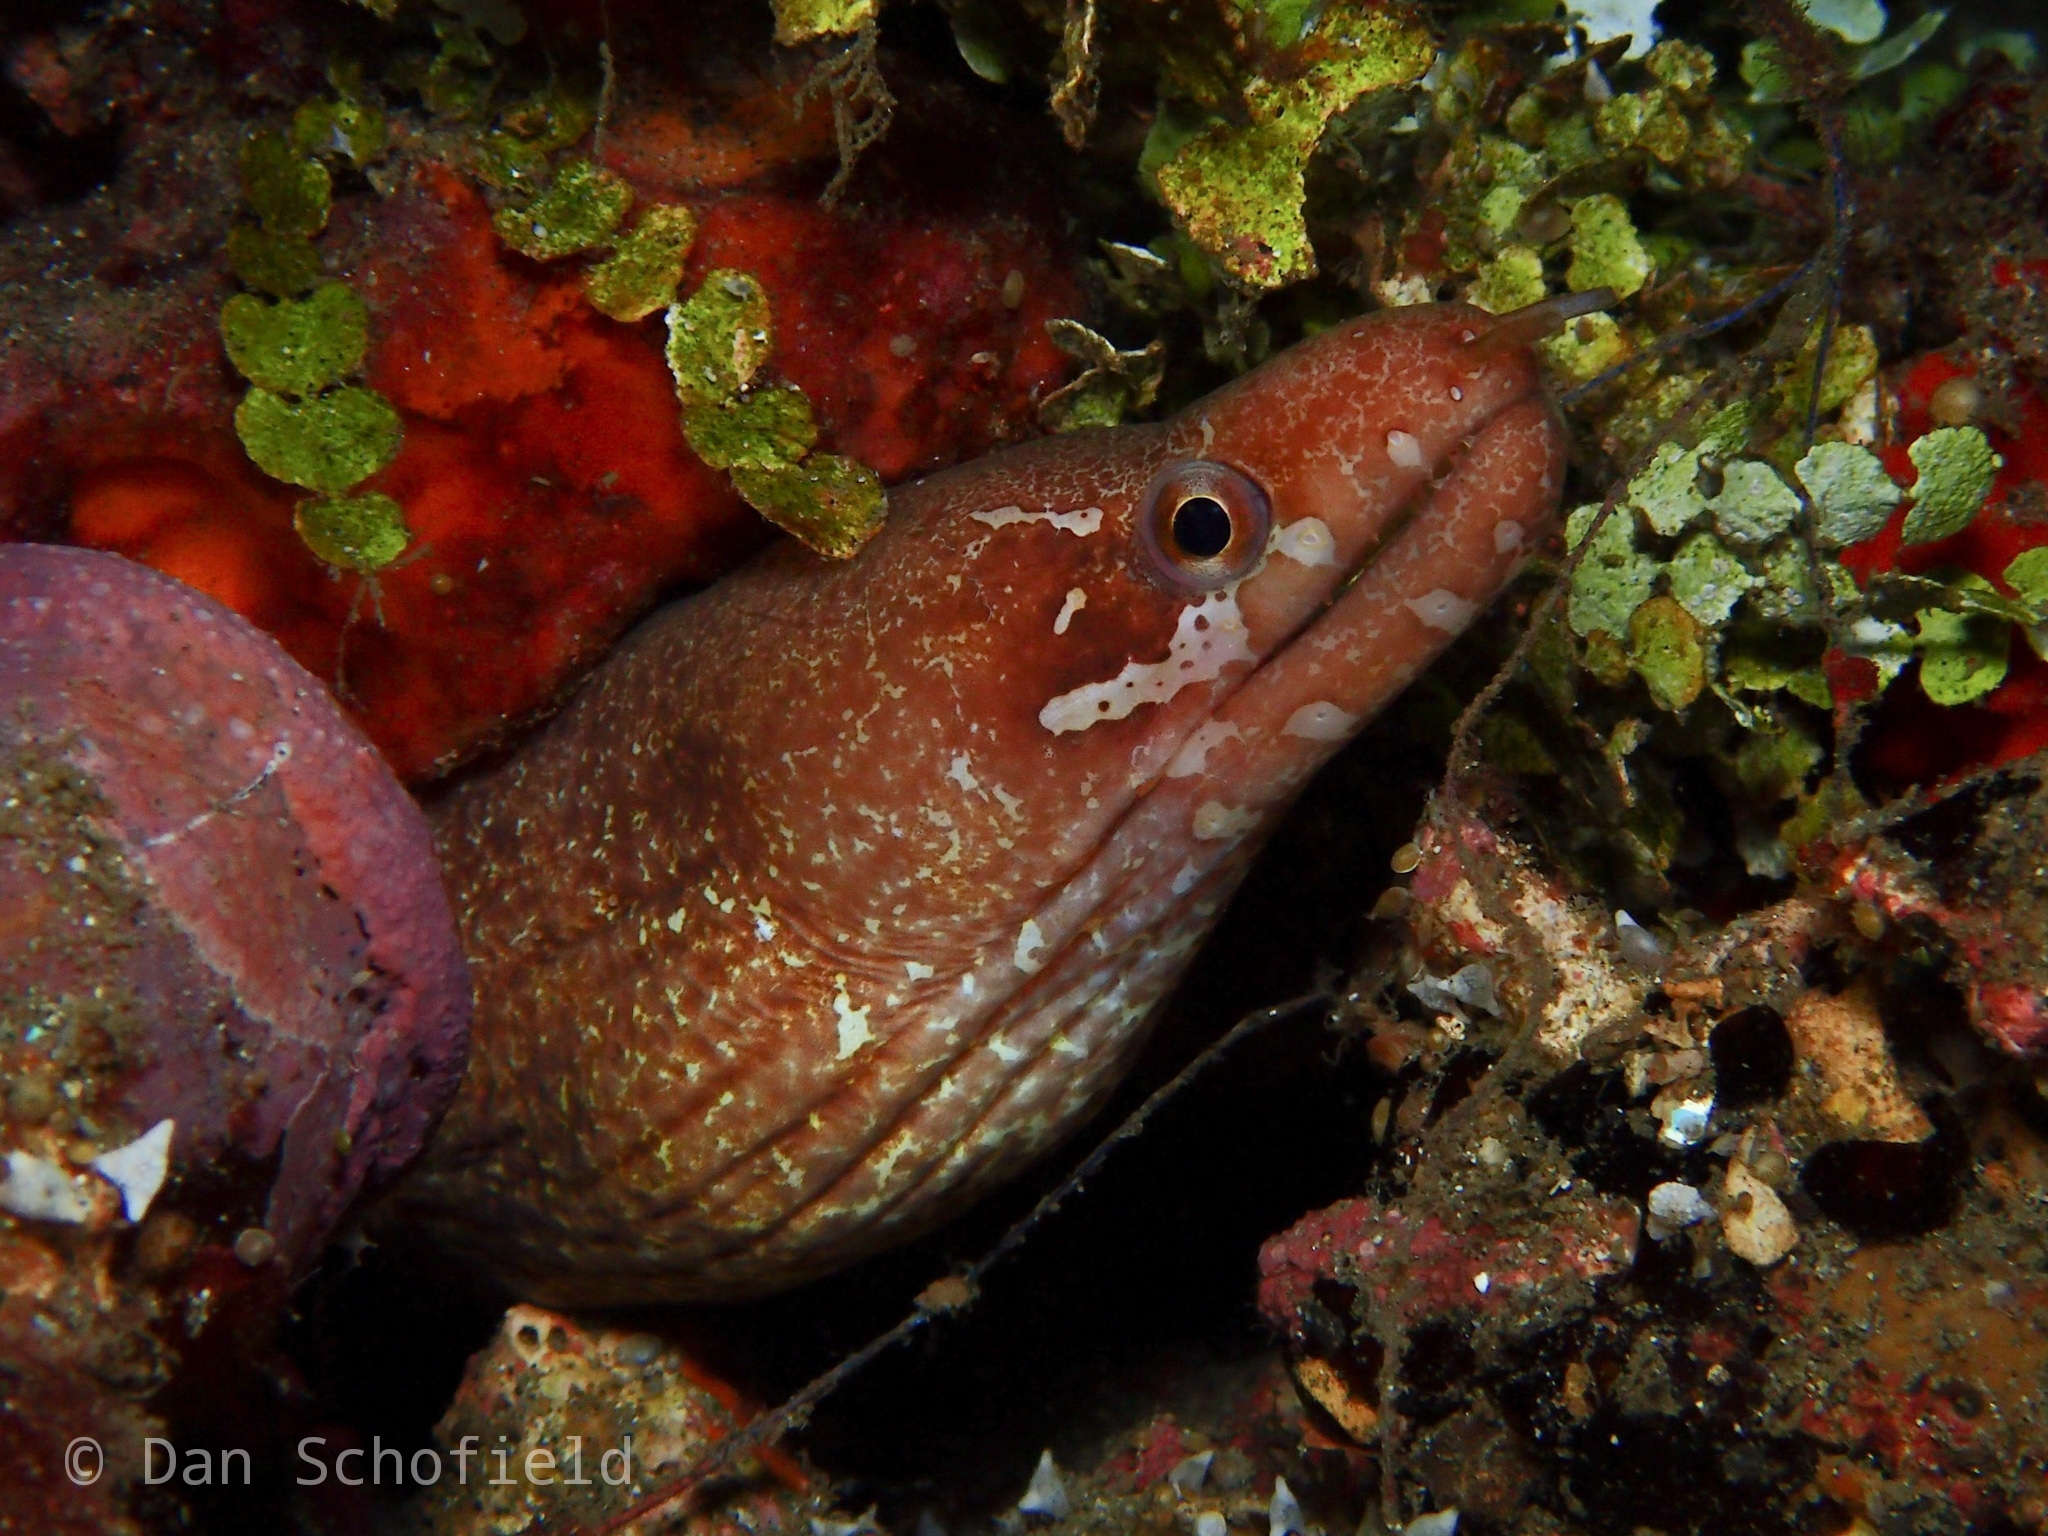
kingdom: Animalia
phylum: Chordata
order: Anguilliformes
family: Muraenidae
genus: Gymnothorax
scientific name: Gymnothorax zonipectis
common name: Bar-tail moray
